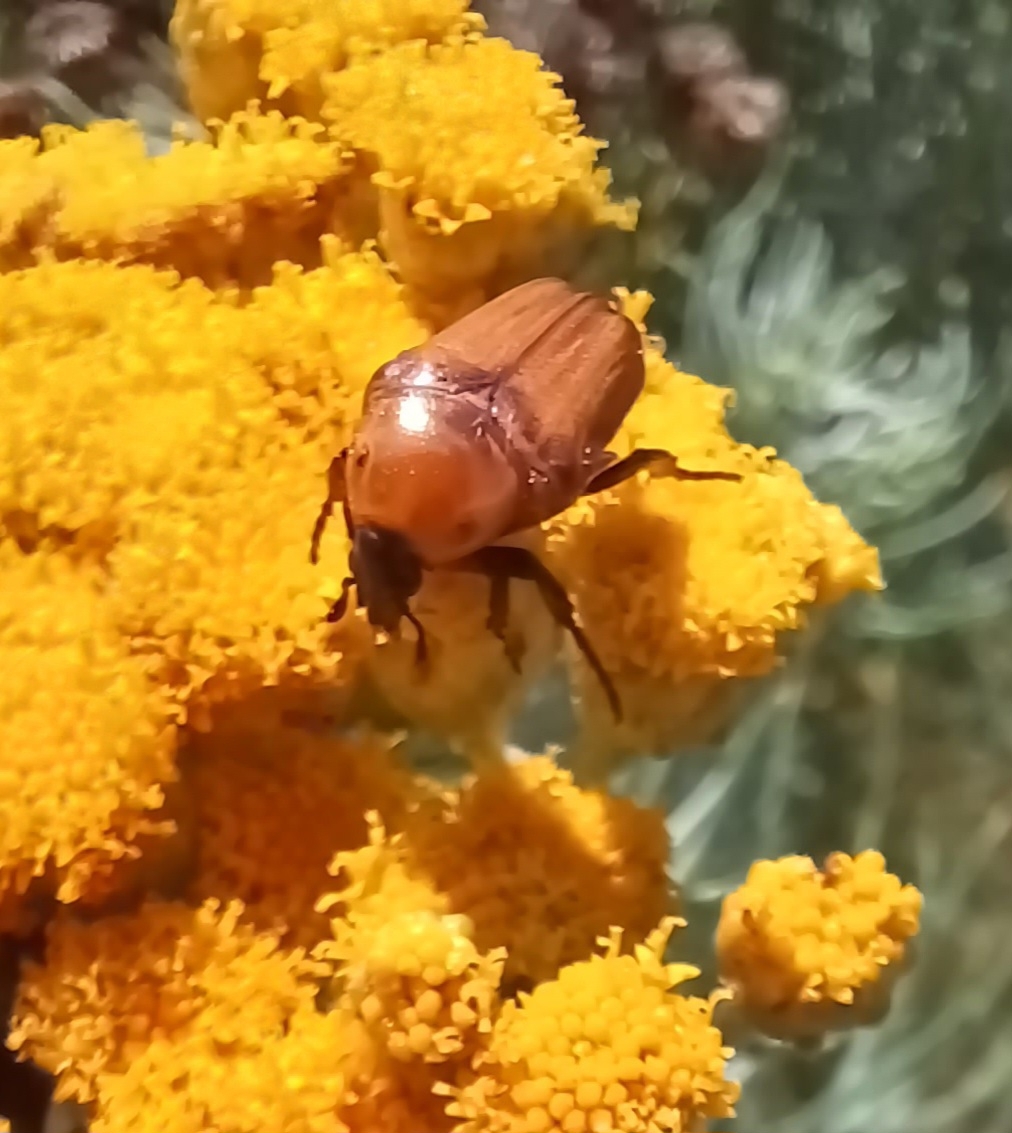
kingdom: Animalia
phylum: Arthropoda
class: Insecta
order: Coleoptera
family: Scarabaeidae
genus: Leucocelis
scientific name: Leucocelis rubra
